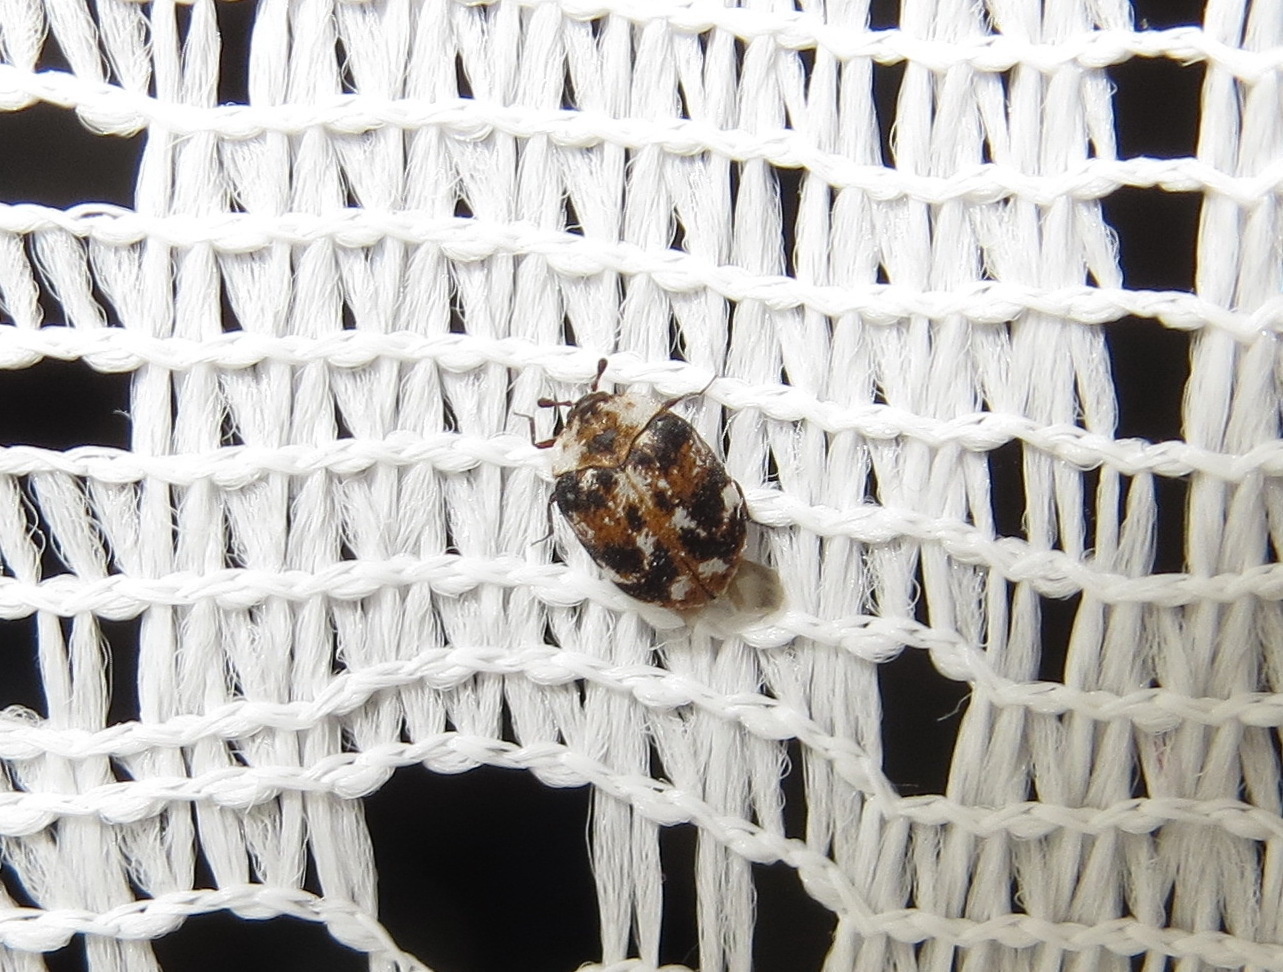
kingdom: Animalia
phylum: Arthropoda
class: Insecta
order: Coleoptera
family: Dermestidae
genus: Anthrenus
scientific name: Anthrenus picturatus
